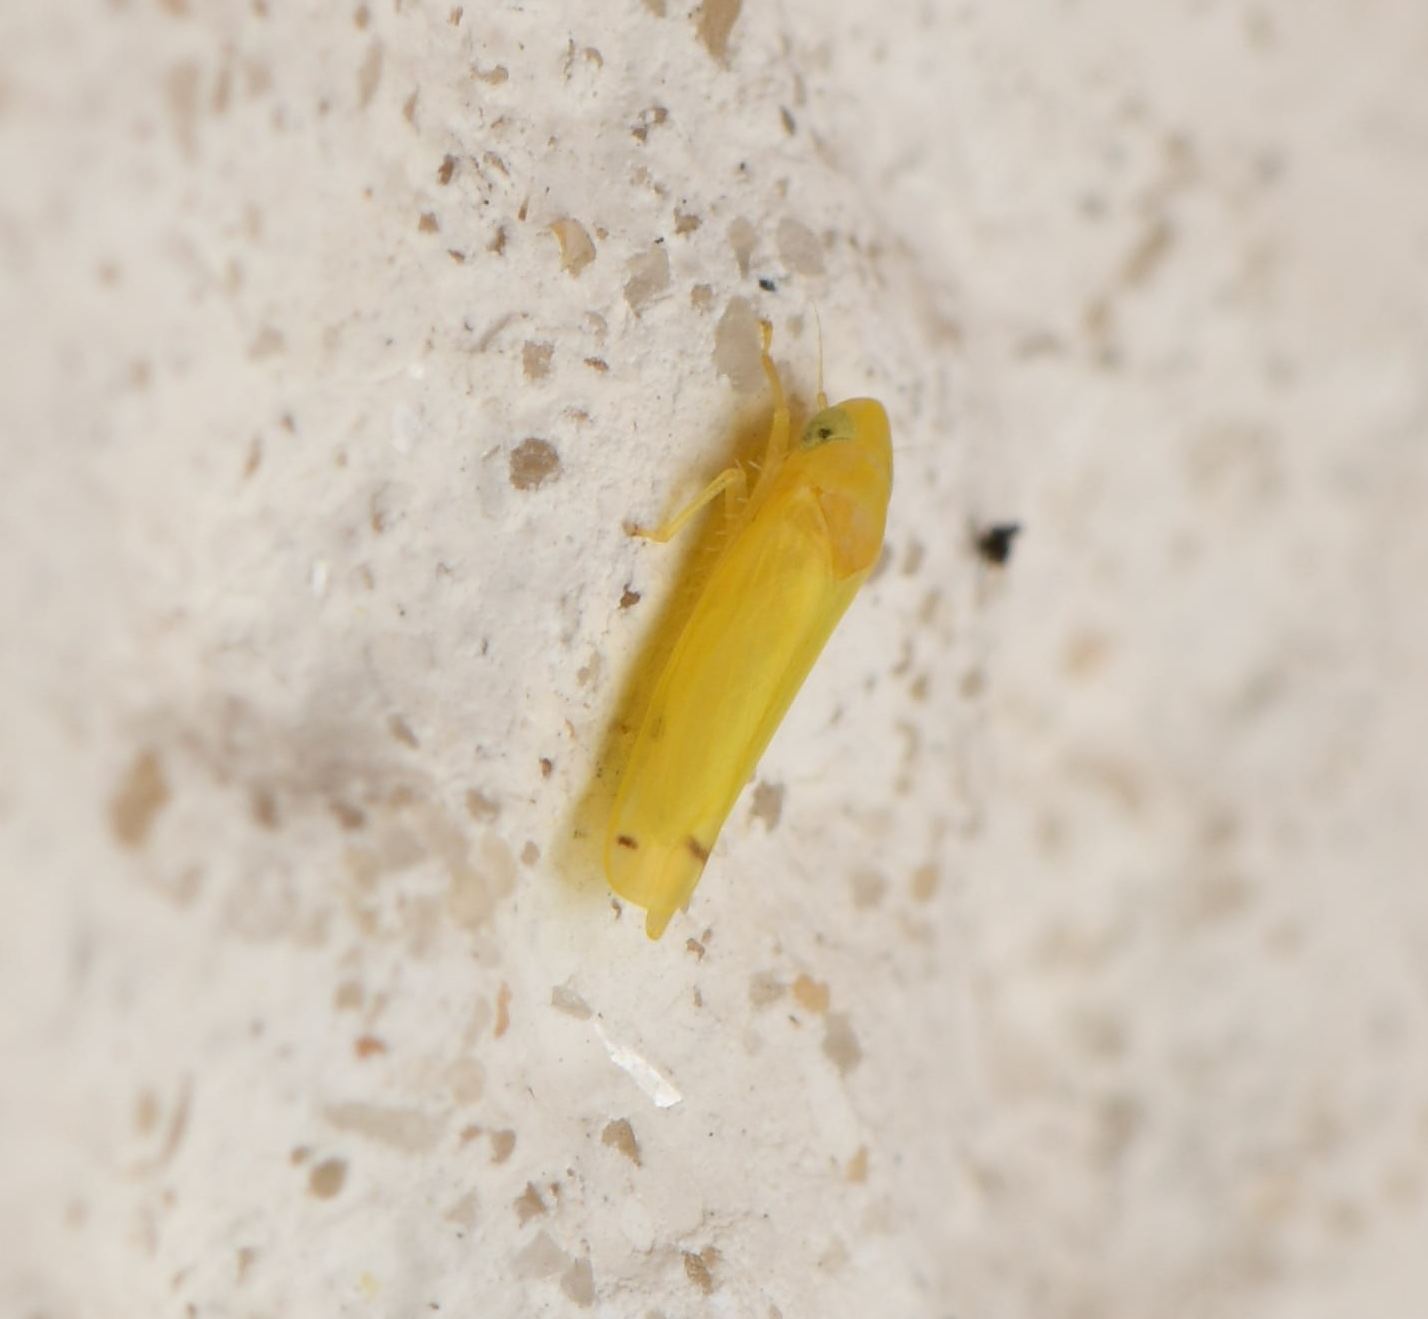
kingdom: Animalia
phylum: Arthropoda
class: Insecta
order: Hemiptera
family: Cicadellidae
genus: Dikrella
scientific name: Dikrella cedrelae
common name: Leafhopper
